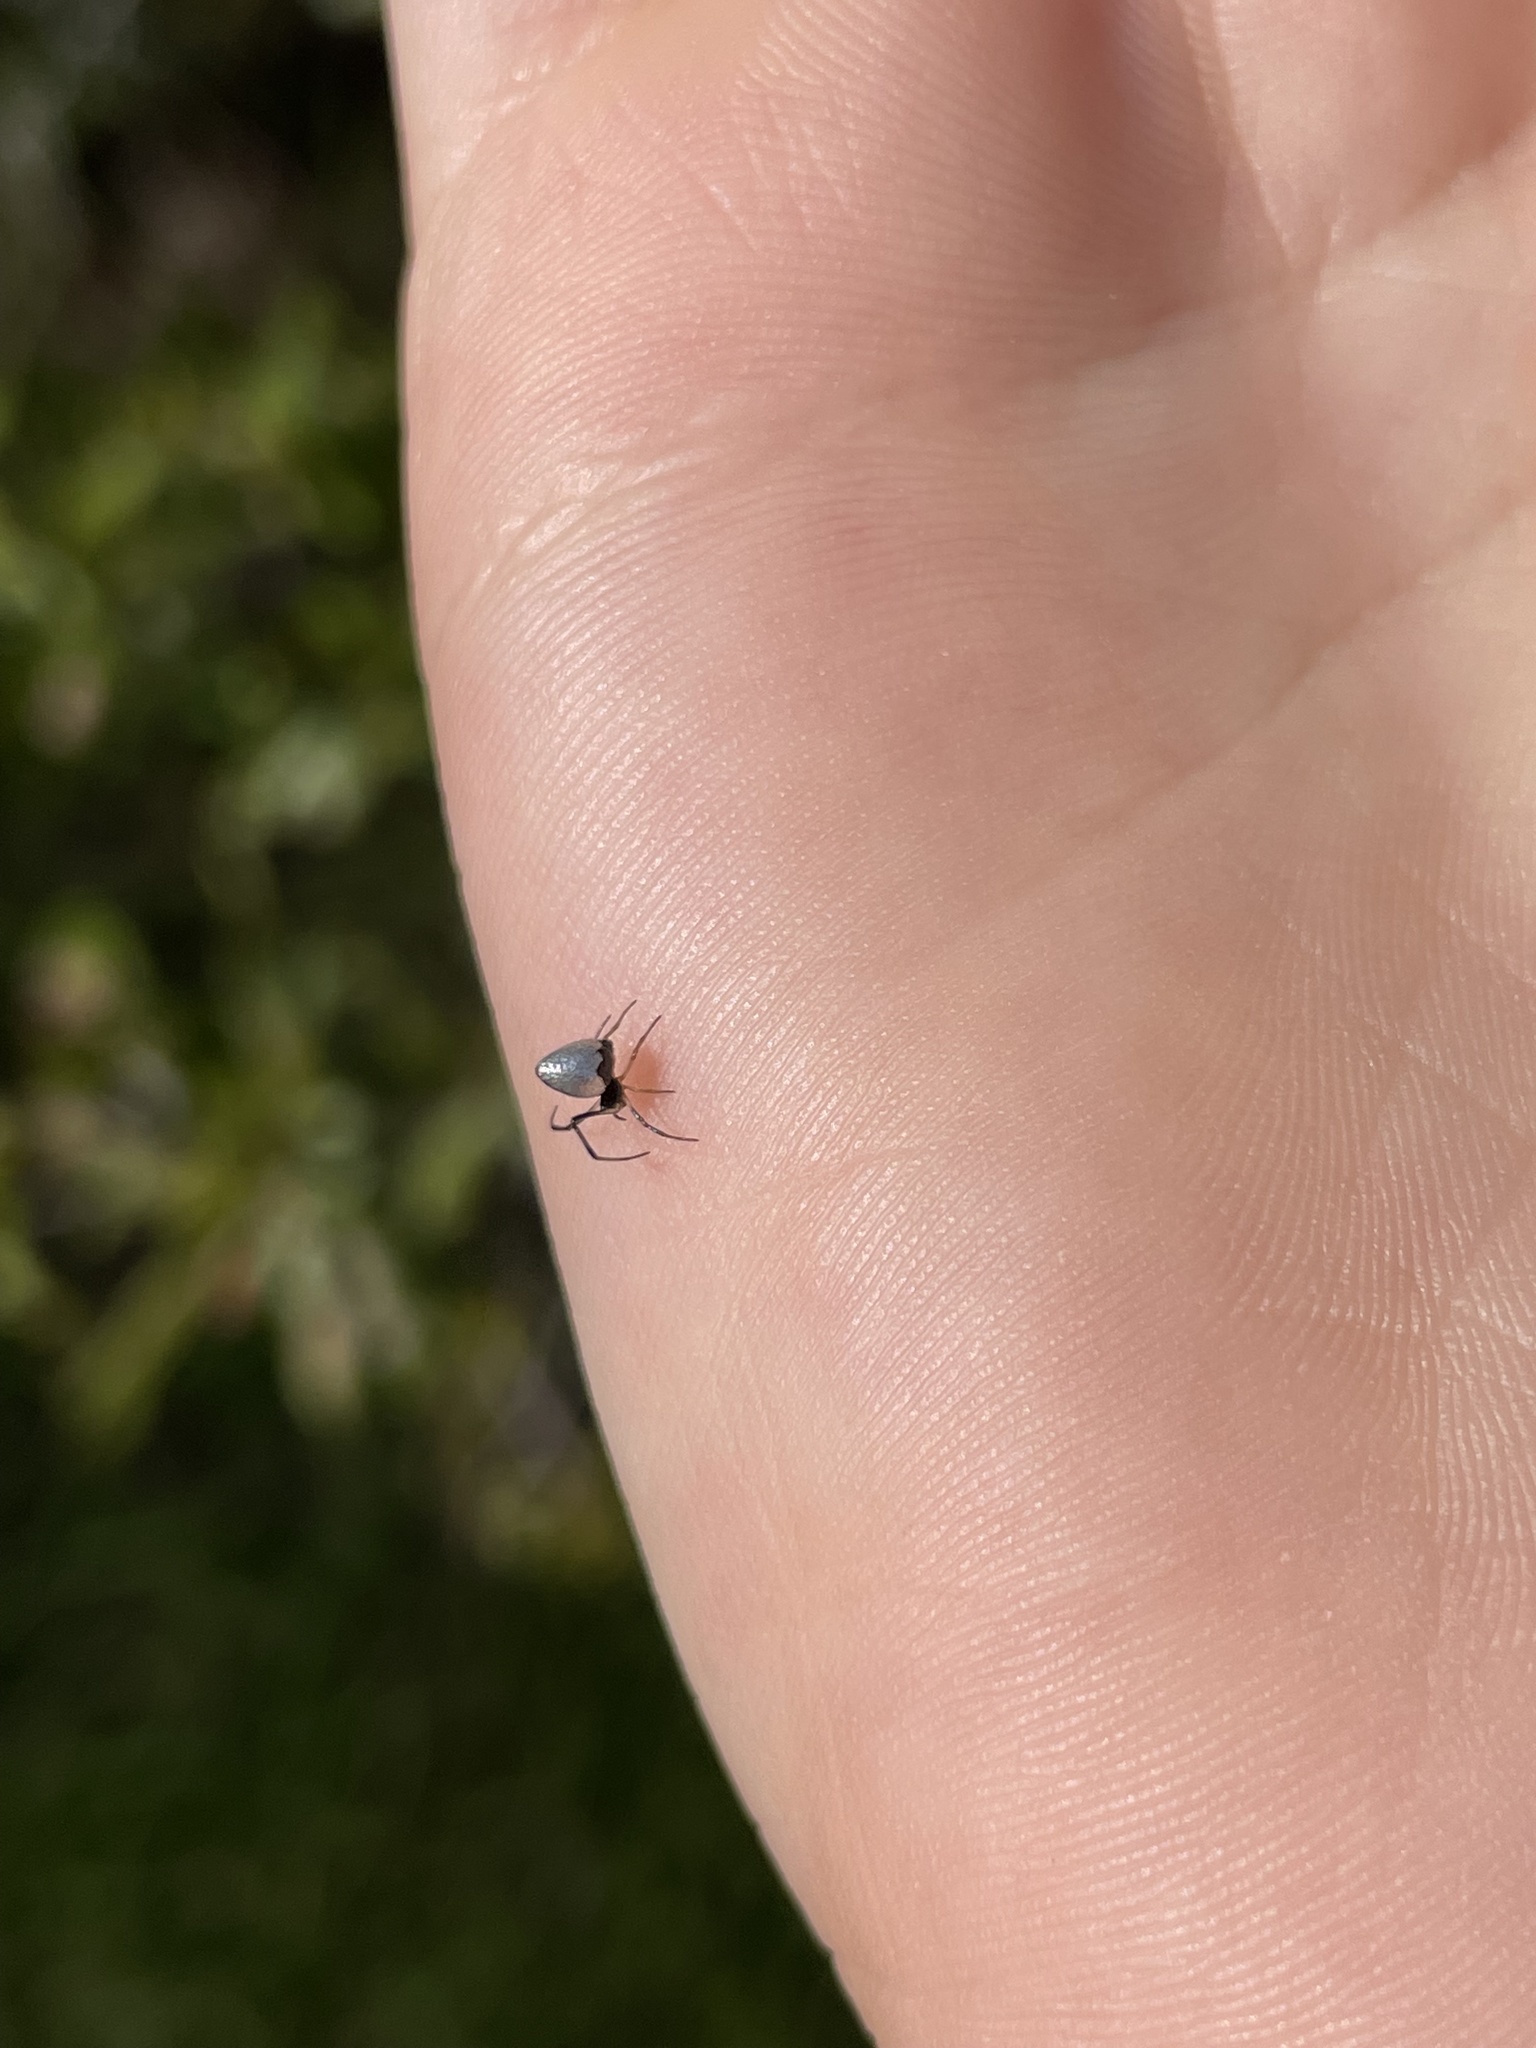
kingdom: Animalia
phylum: Arthropoda
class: Arachnida
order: Araneae
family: Theridiidae
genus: Argyrodes
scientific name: Argyrodes elevatus
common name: Cobweb spiders
